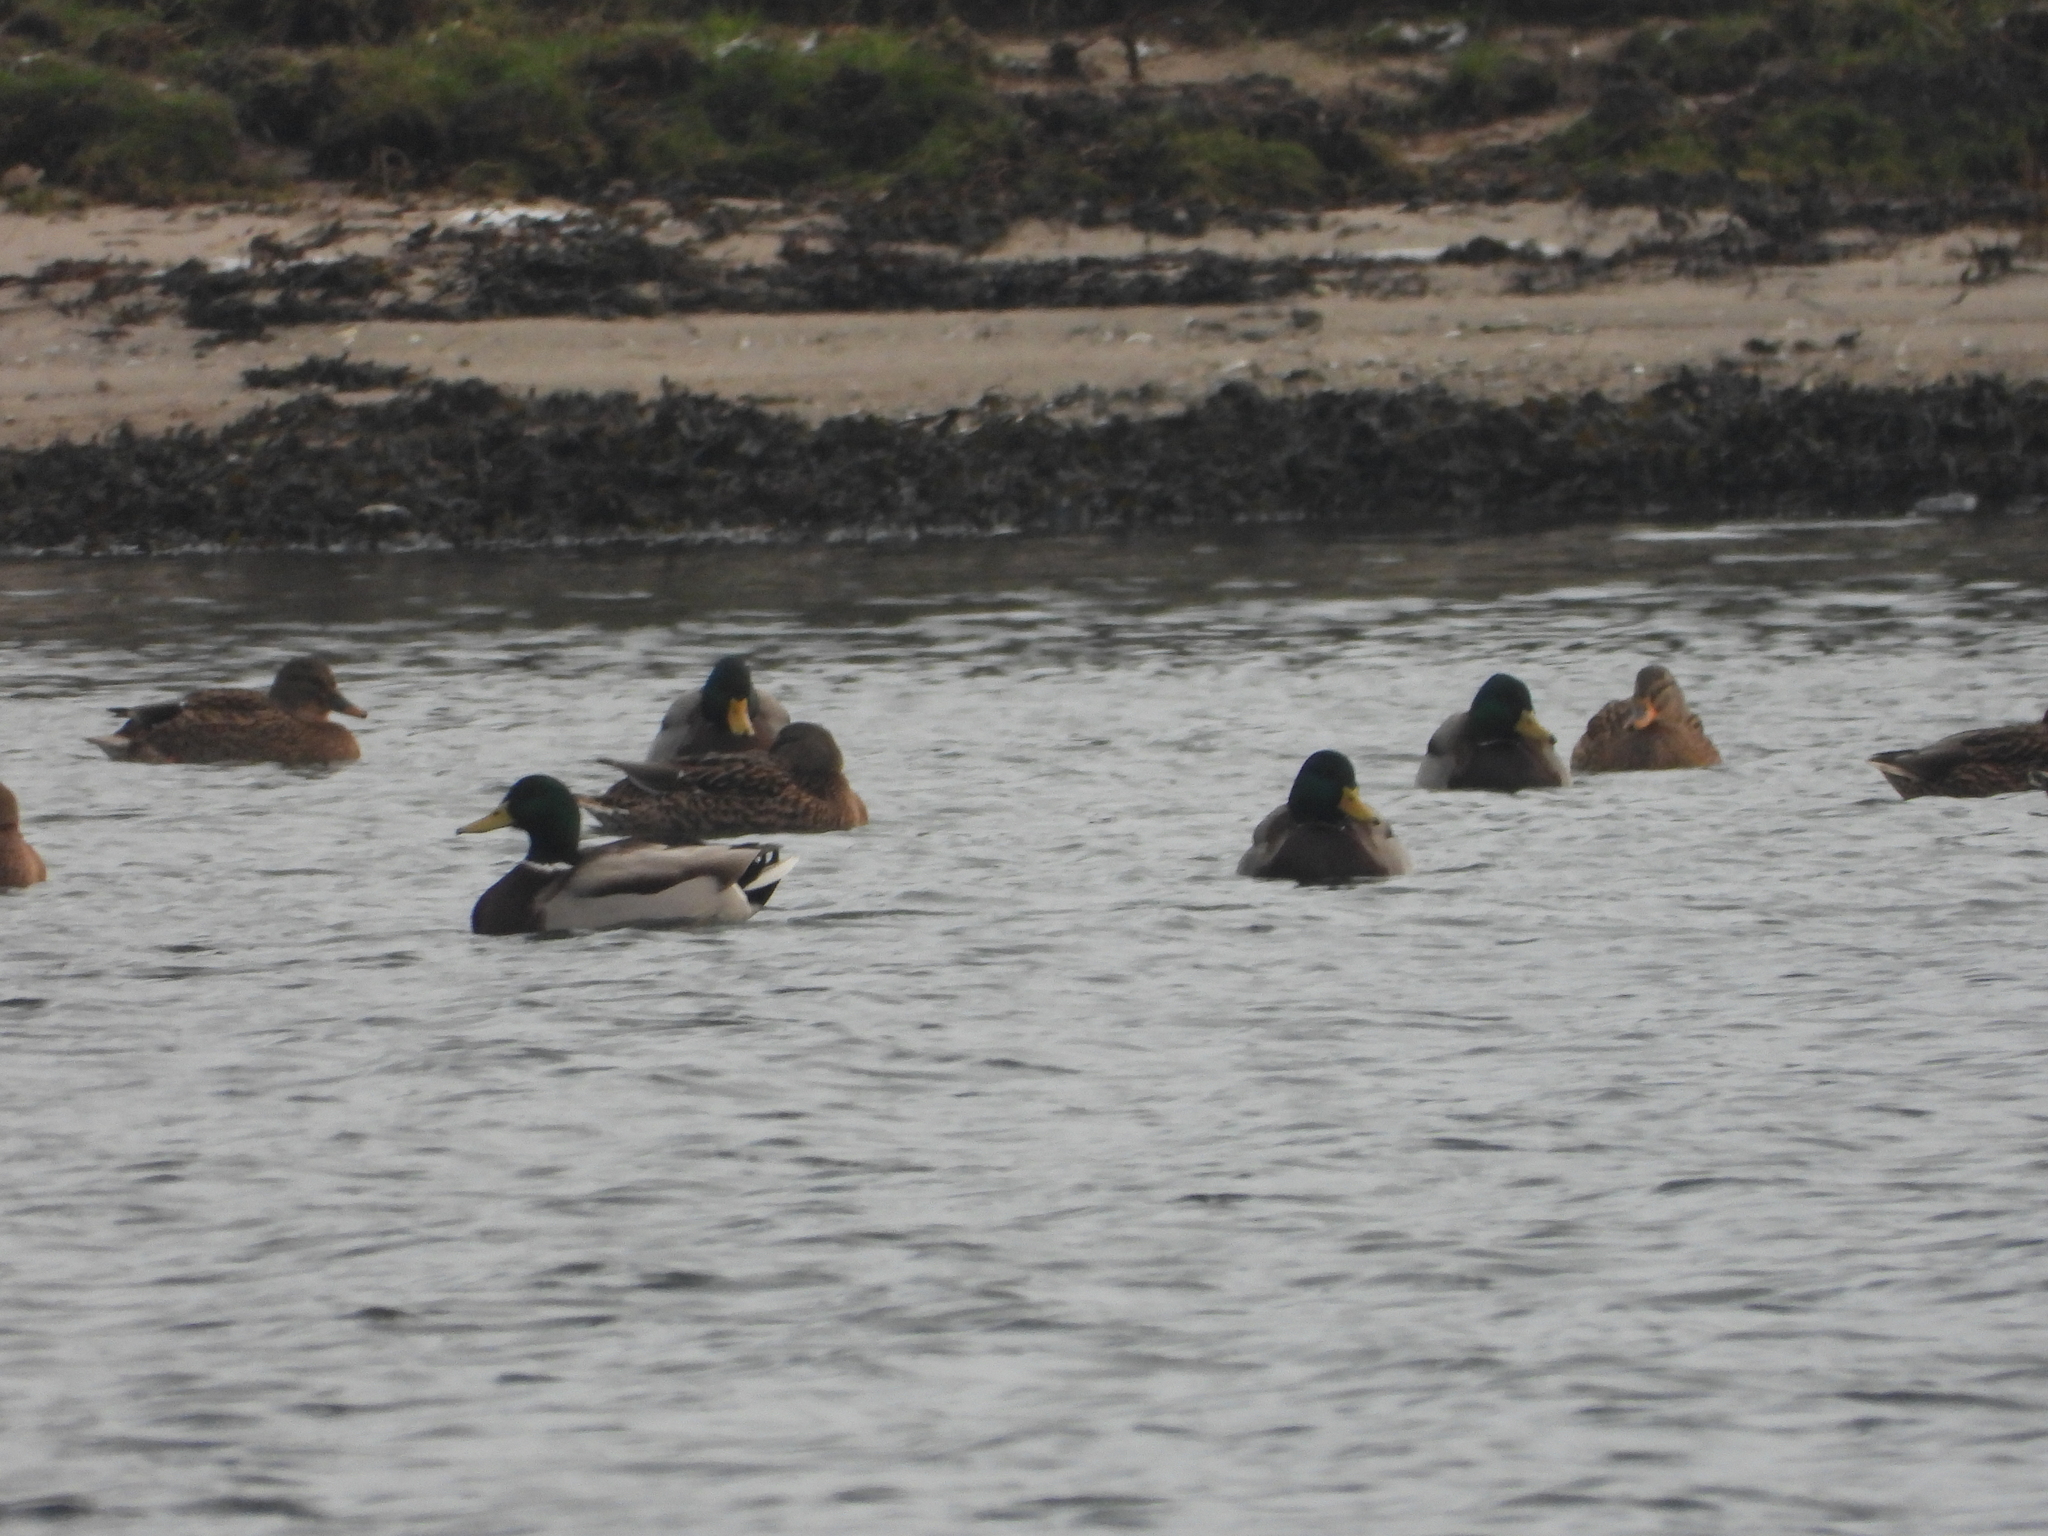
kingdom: Animalia
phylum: Chordata
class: Aves
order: Anseriformes
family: Anatidae
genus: Anas
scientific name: Anas platyrhynchos
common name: Mallard
